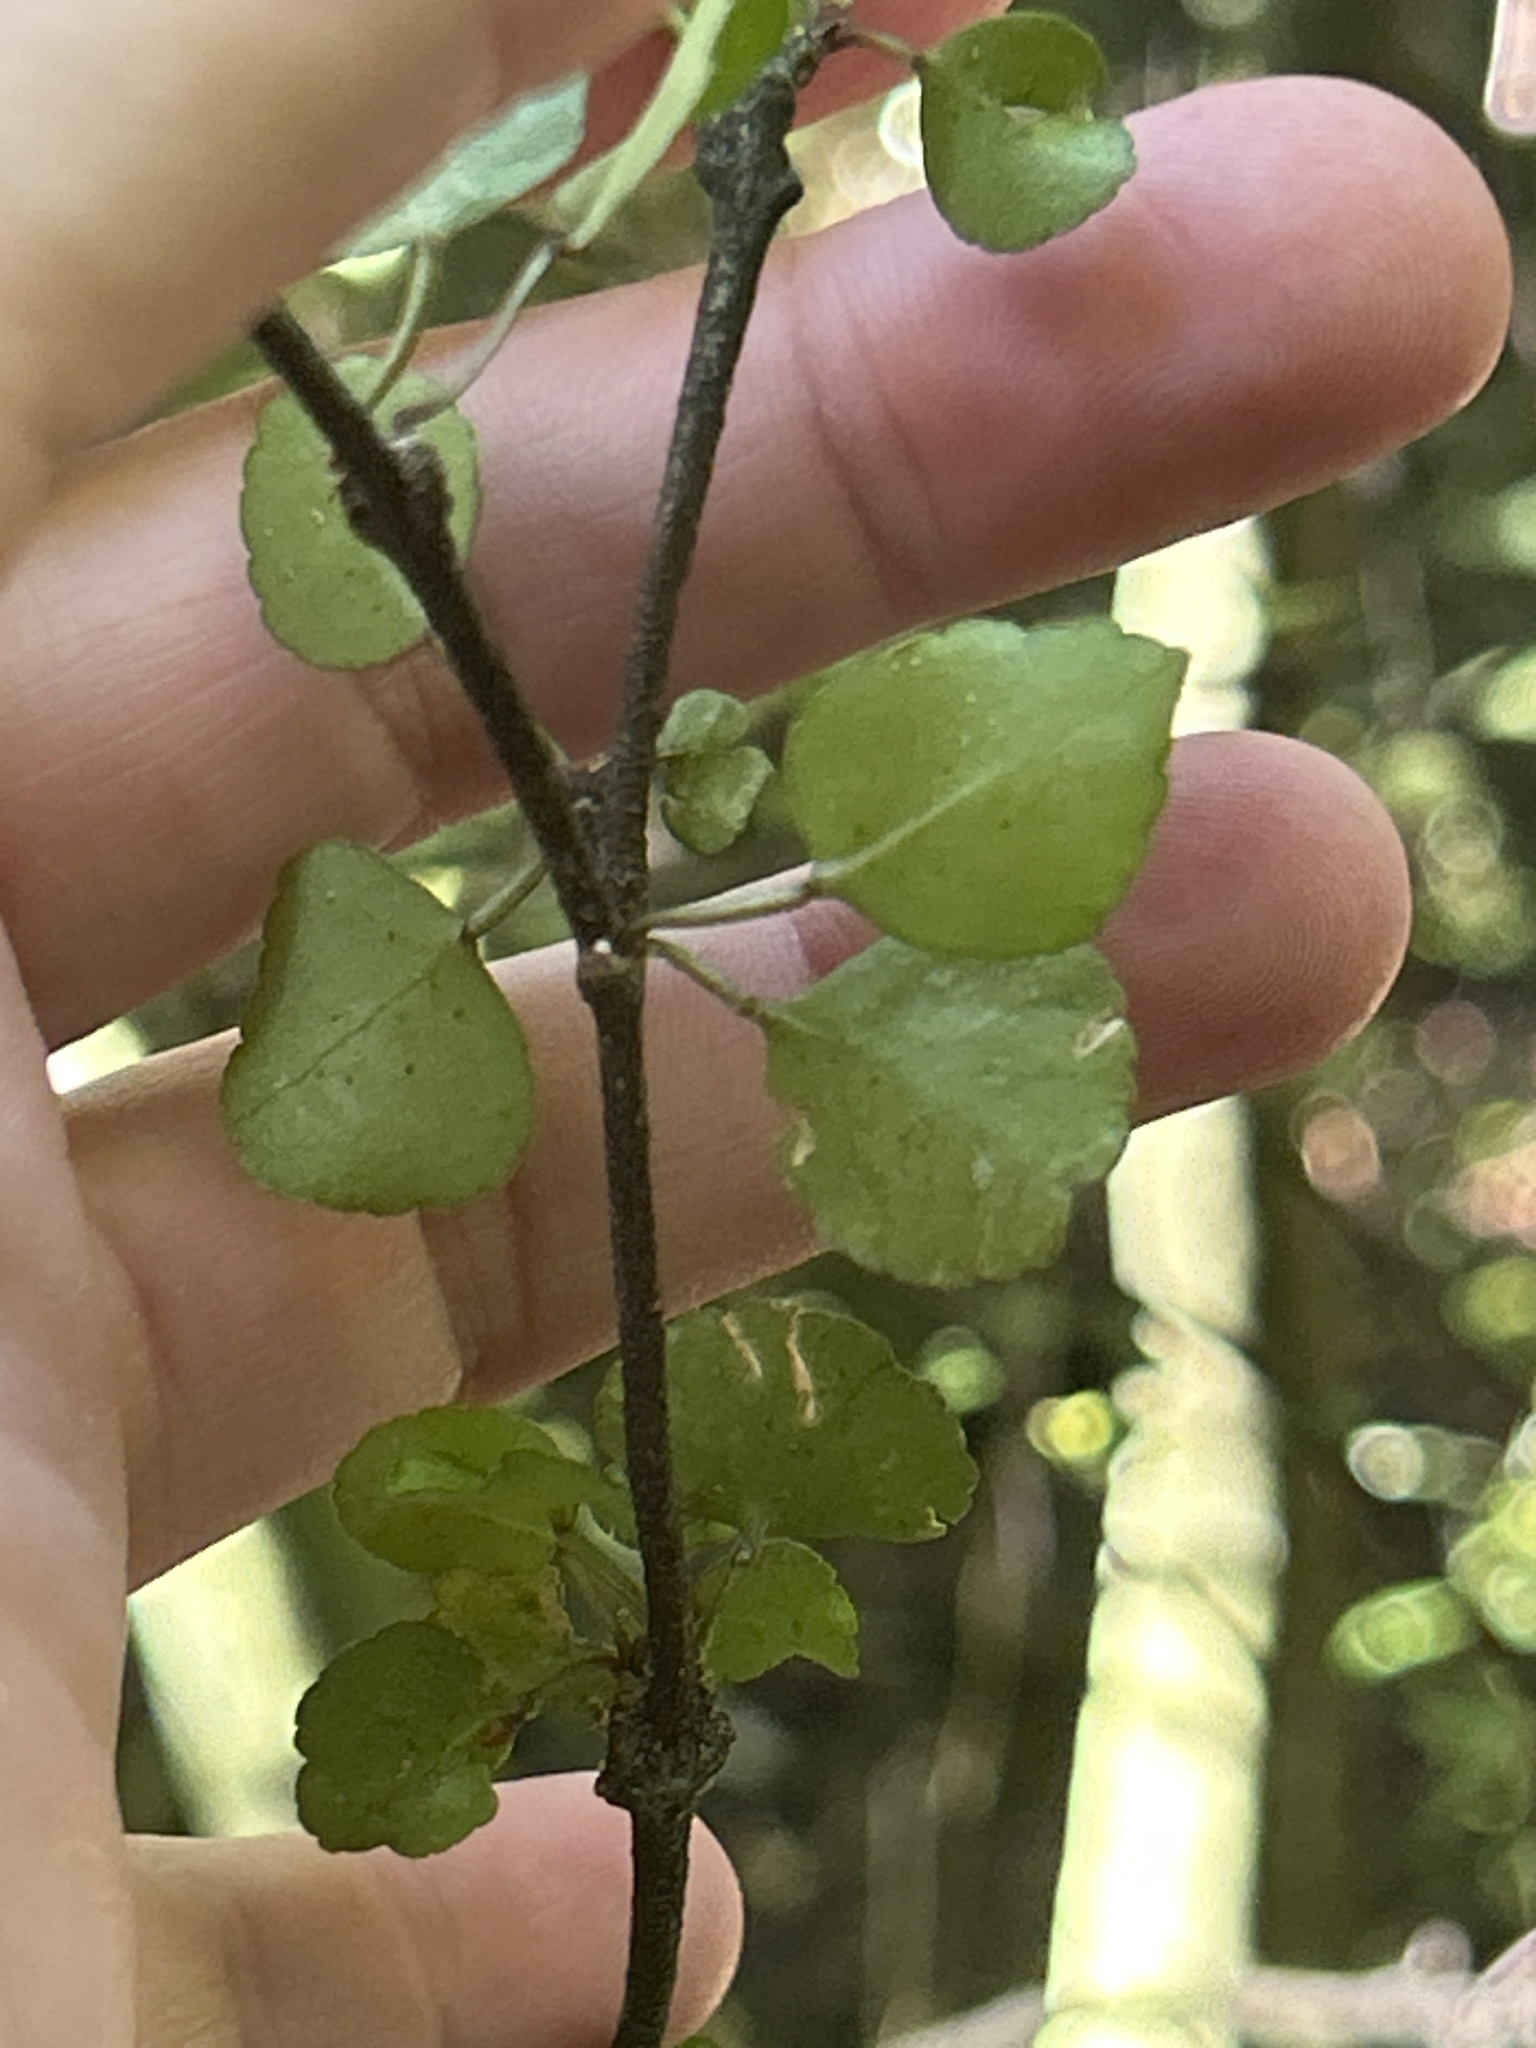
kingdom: Plantae
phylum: Tracheophyta
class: Magnoliopsida
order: Sapindales
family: Rutaceae
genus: Melicope
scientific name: Melicope simplex
